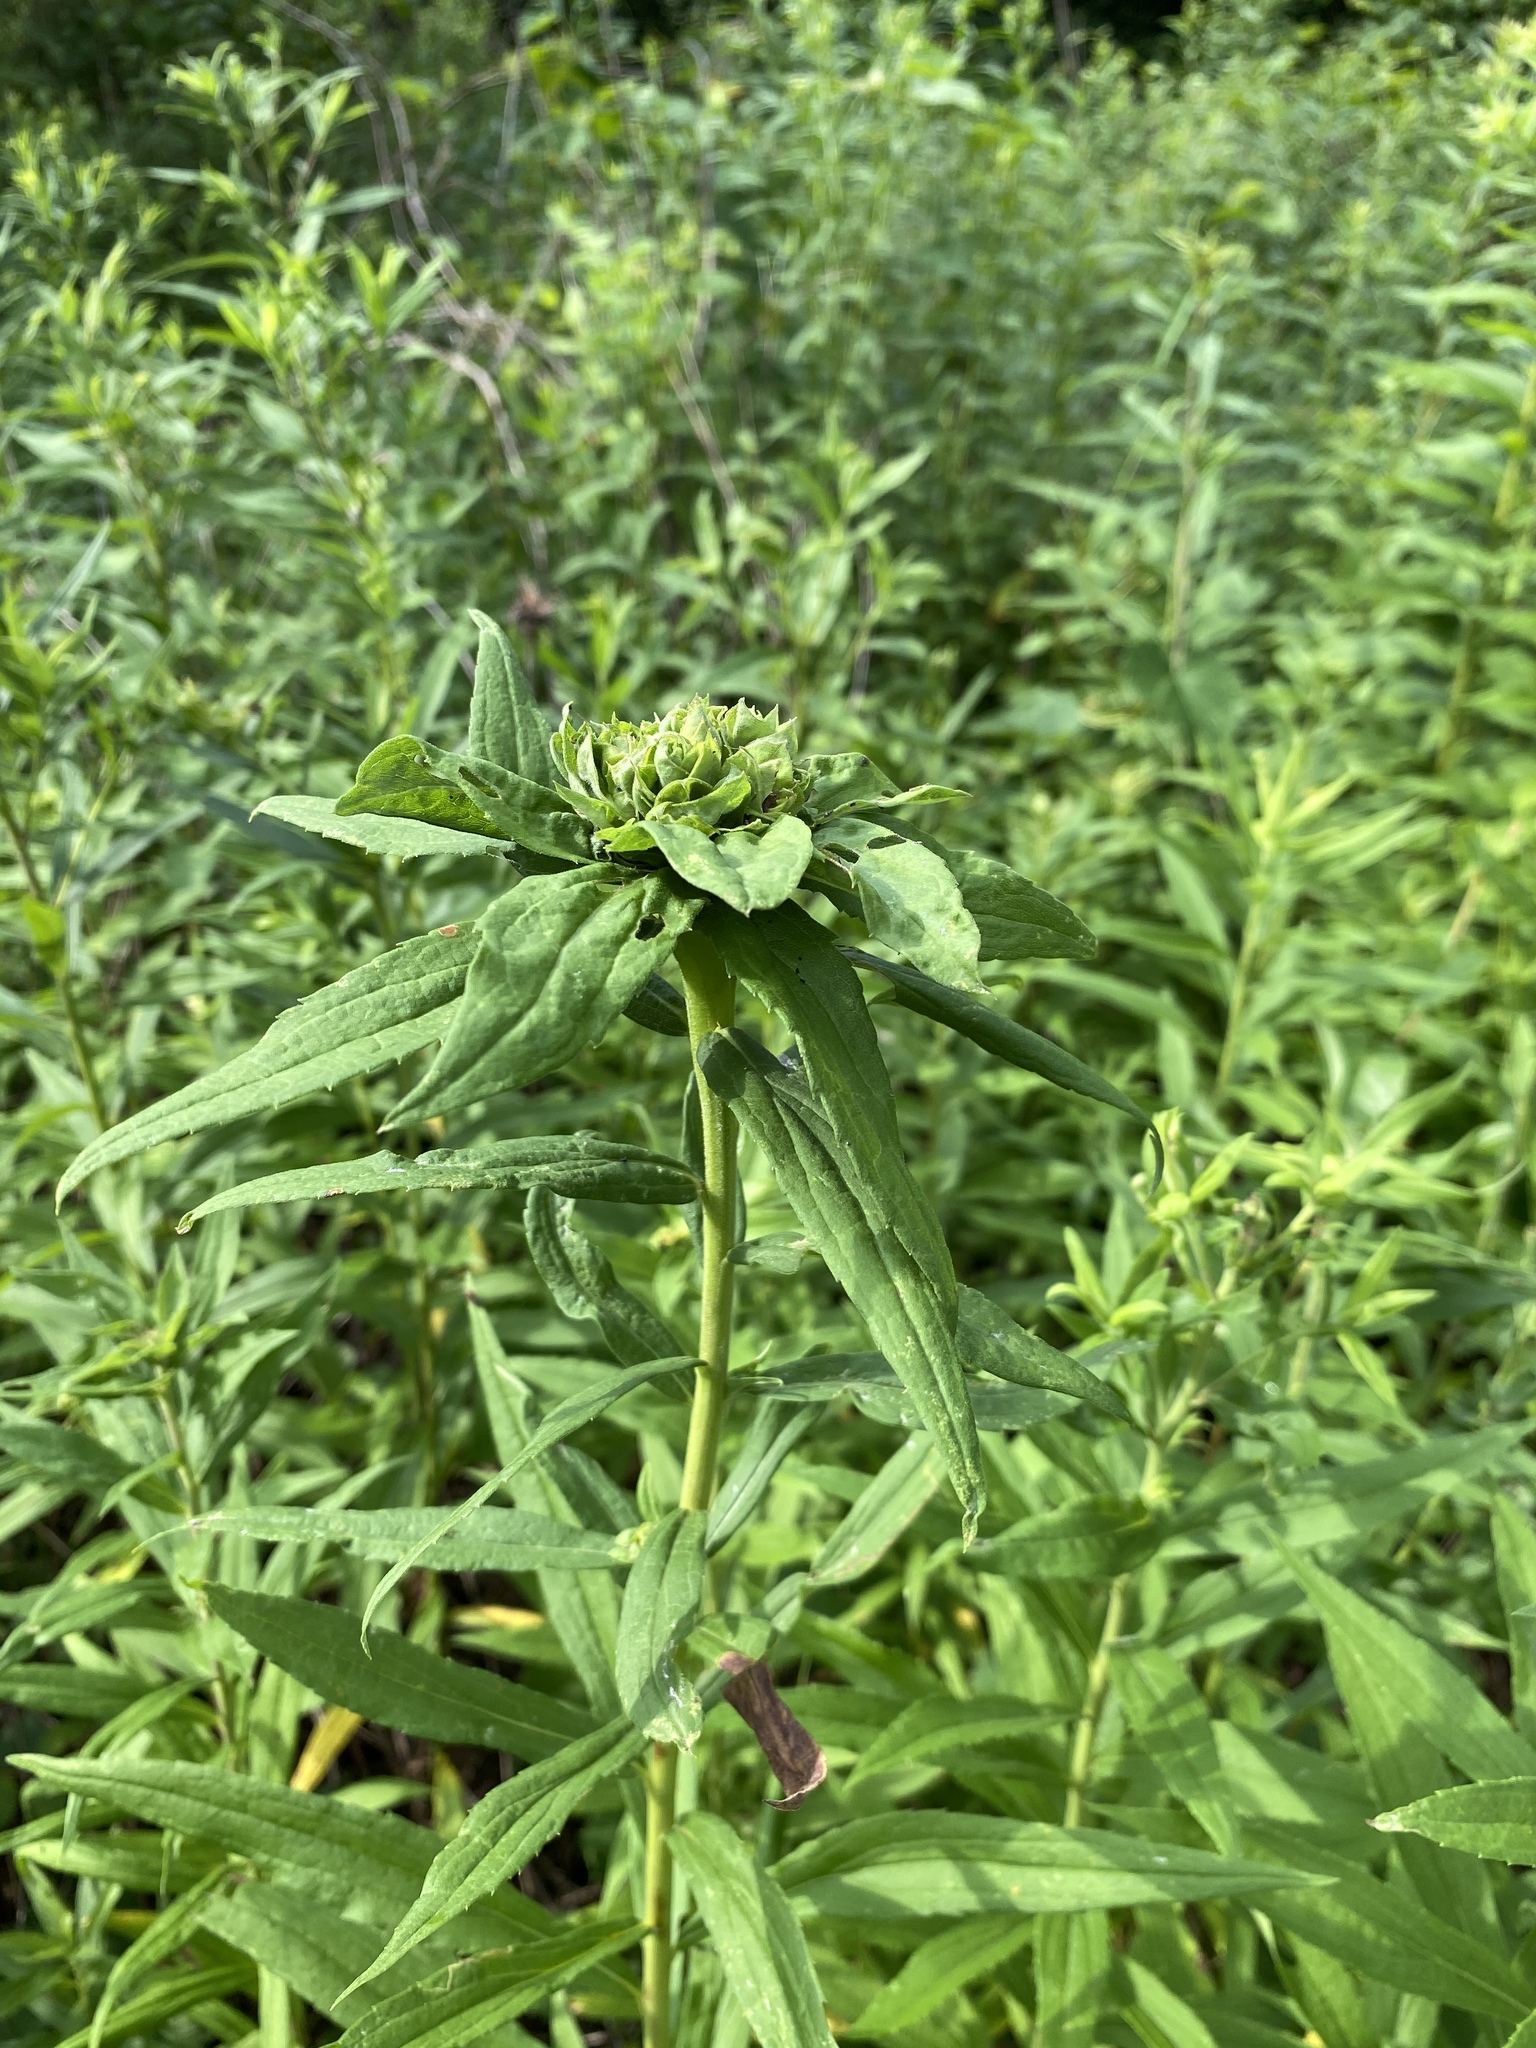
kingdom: Animalia
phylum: Arthropoda
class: Insecta
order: Diptera
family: Cecidomyiidae
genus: Rhopalomyia
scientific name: Rhopalomyia solidaginis
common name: Goldenrod bunch gall midge
